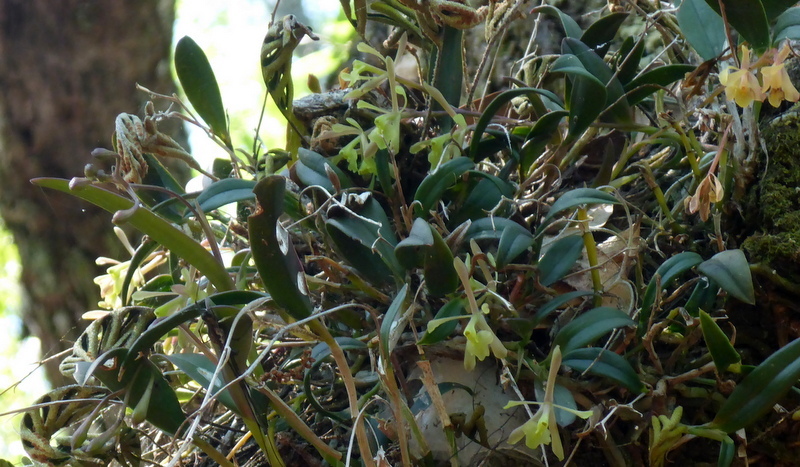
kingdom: Plantae
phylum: Tracheophyta
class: Liliopsida
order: Asparagales
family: Orchidaceae
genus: Epidendrum
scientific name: Epidendrum conopseum
